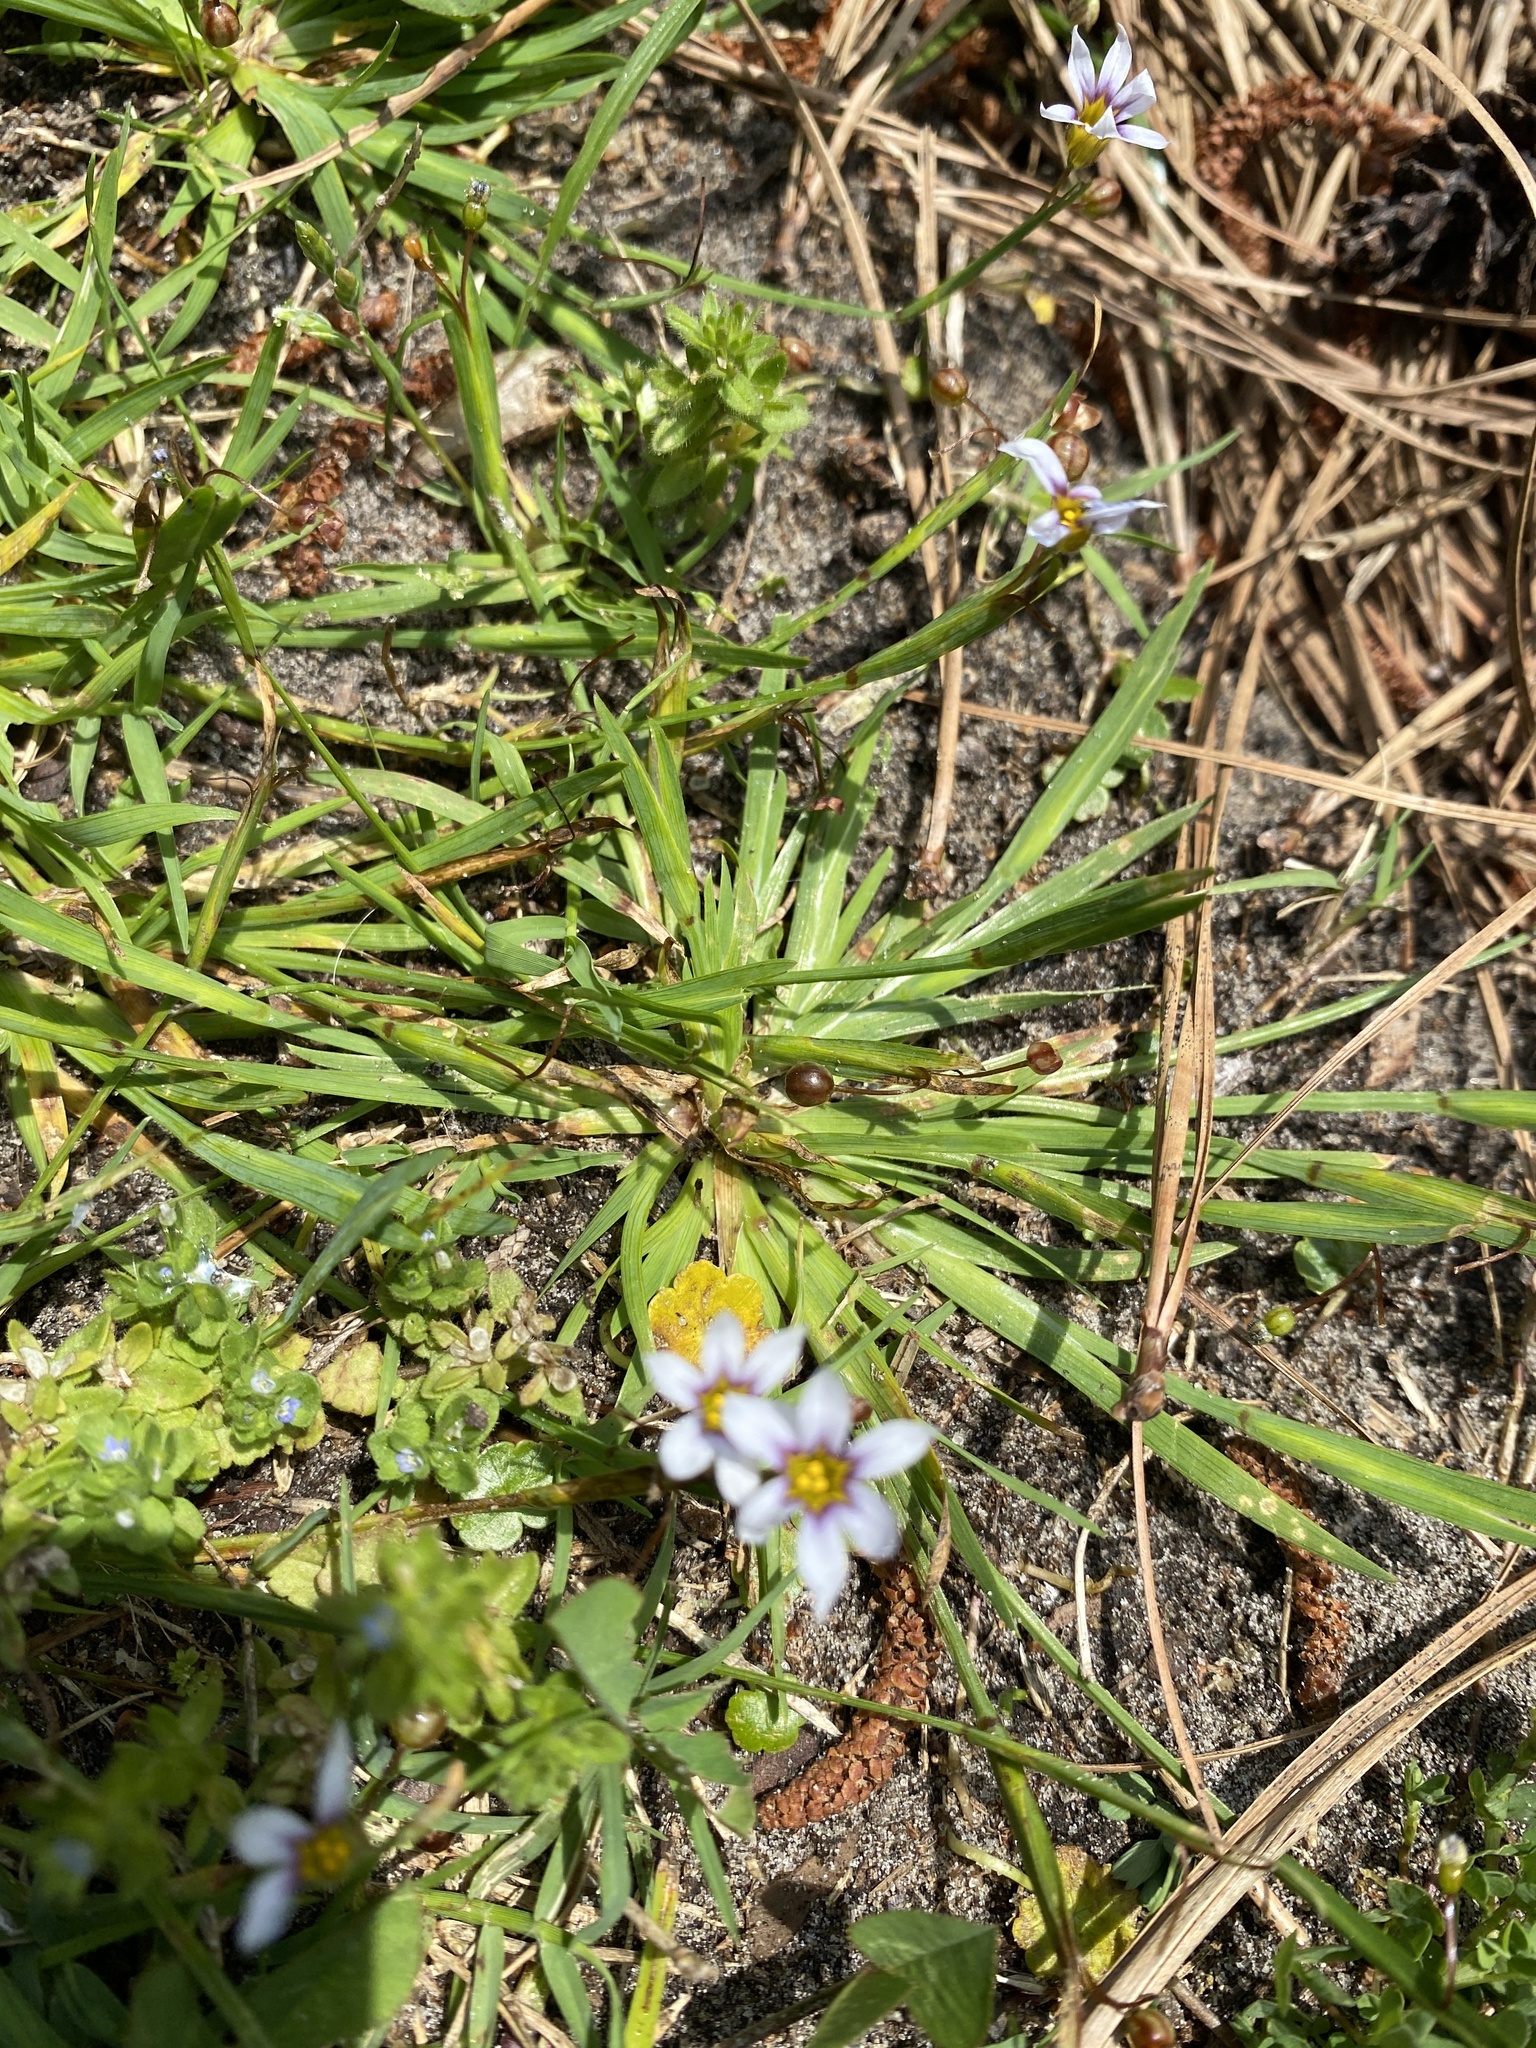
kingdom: Plantae
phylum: Tracheophyta
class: Liliopsida
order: Asparagales
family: Iridaceae
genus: Sisyrinchium
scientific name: Sisyrinchium micranthum
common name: Bermuda pigroot
